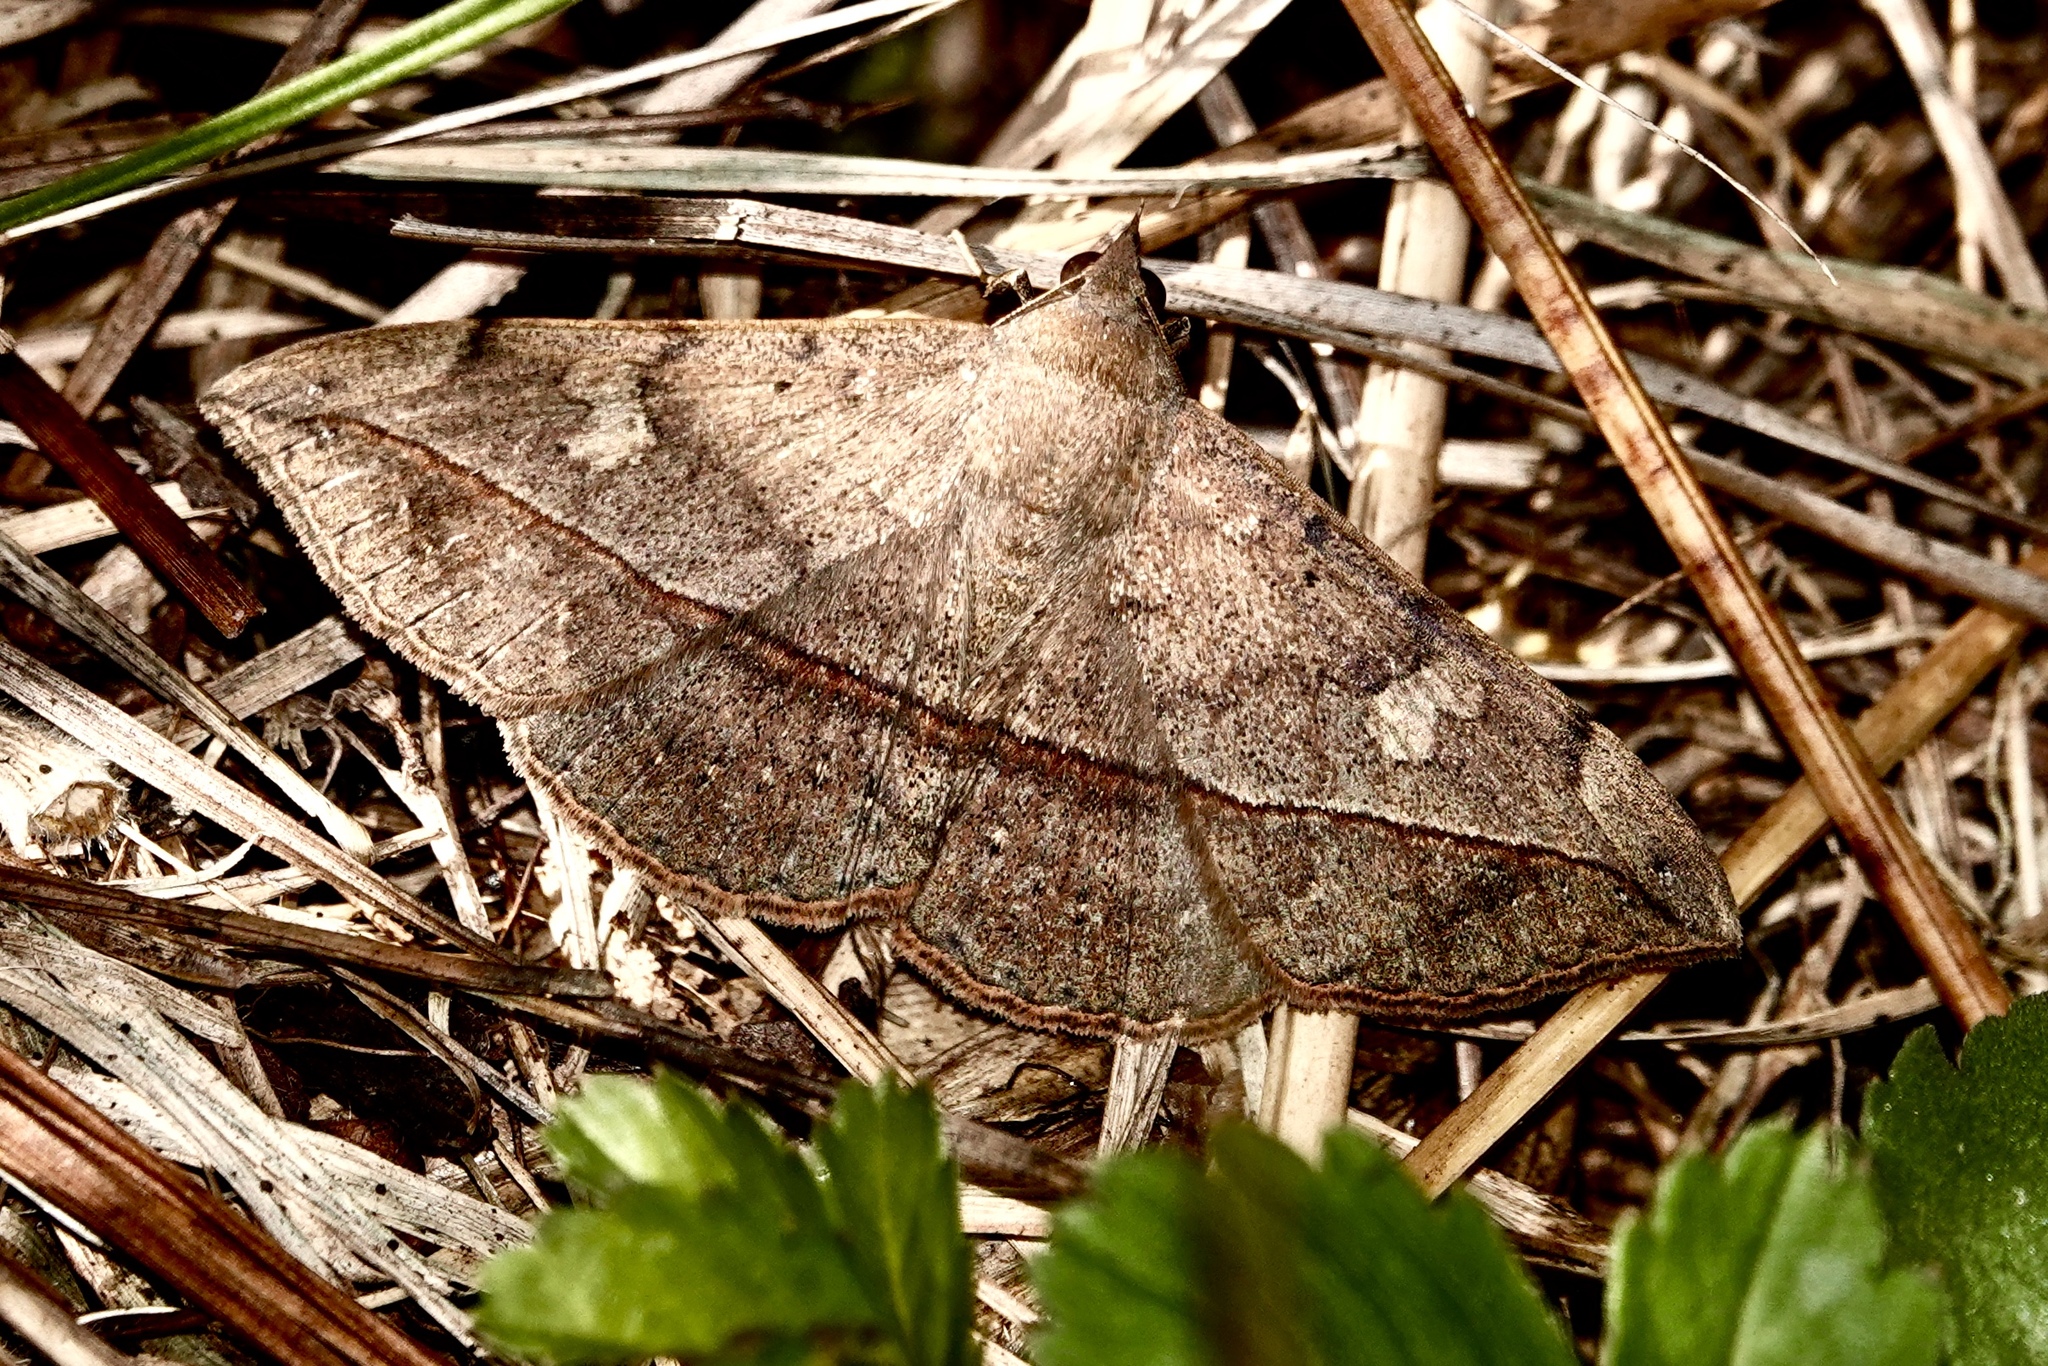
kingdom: Animalia
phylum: Arthropoda
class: Insecta
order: Lepidoptera
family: Erebidae
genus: Anticarsia
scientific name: Anticarsia gemmatalis
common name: Cutworm moth
